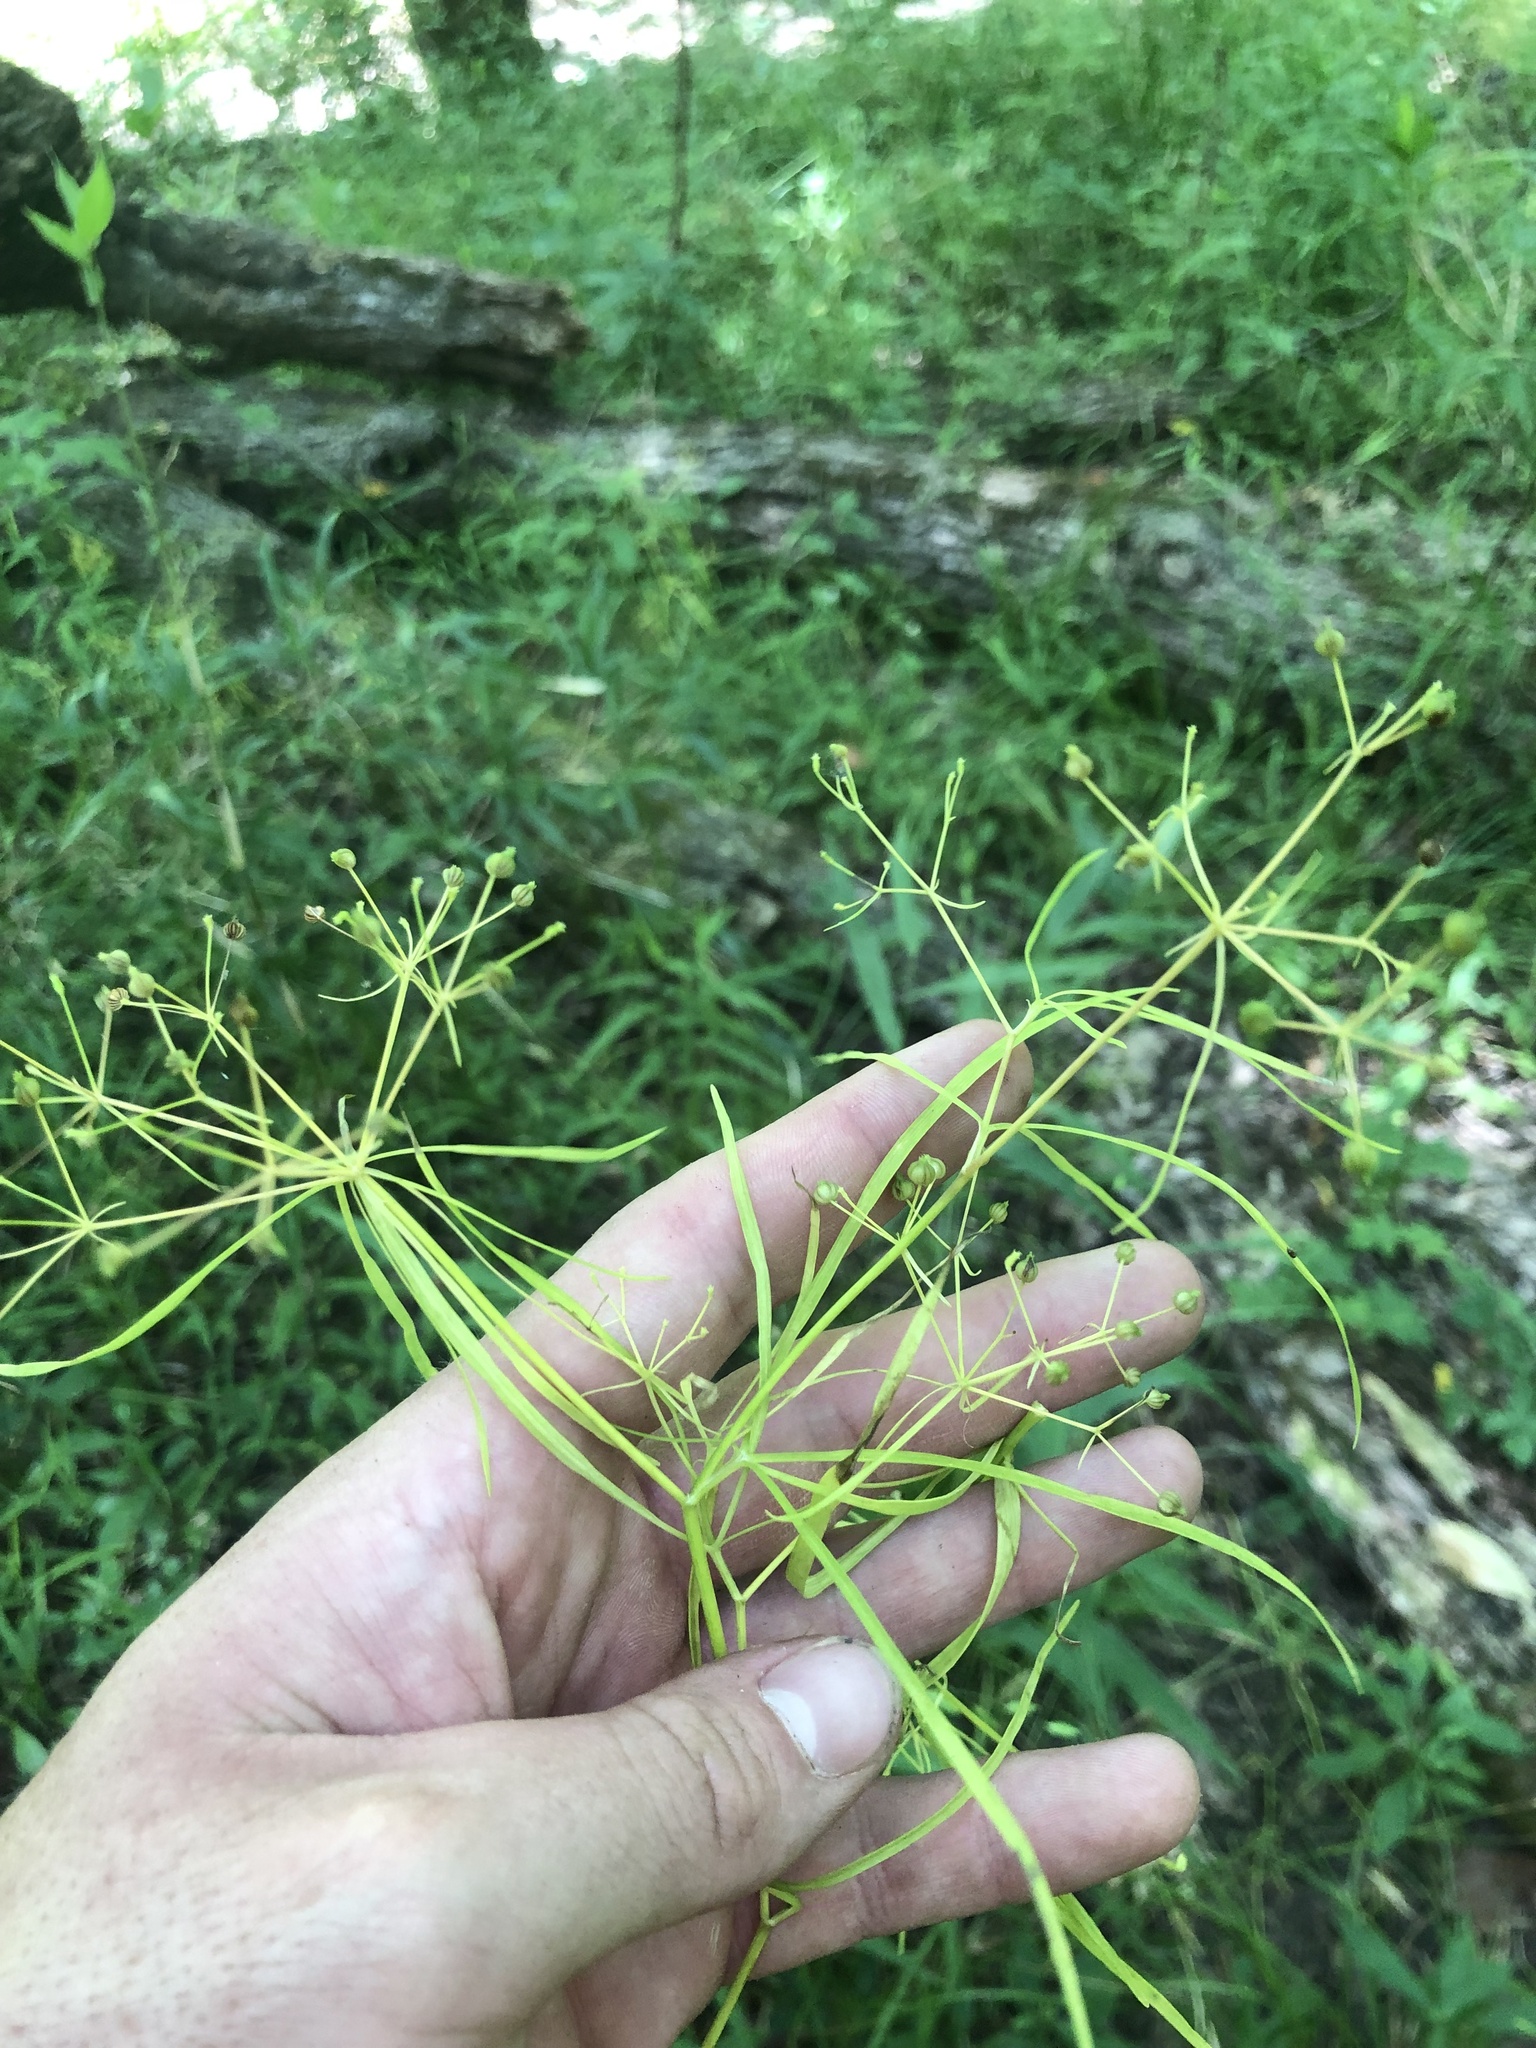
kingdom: Plantae
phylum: Tracheophyta
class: Magnoliopsida
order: Apiales
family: Apiaceae
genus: Cynosciadium
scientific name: Cynosciadium digitatum
